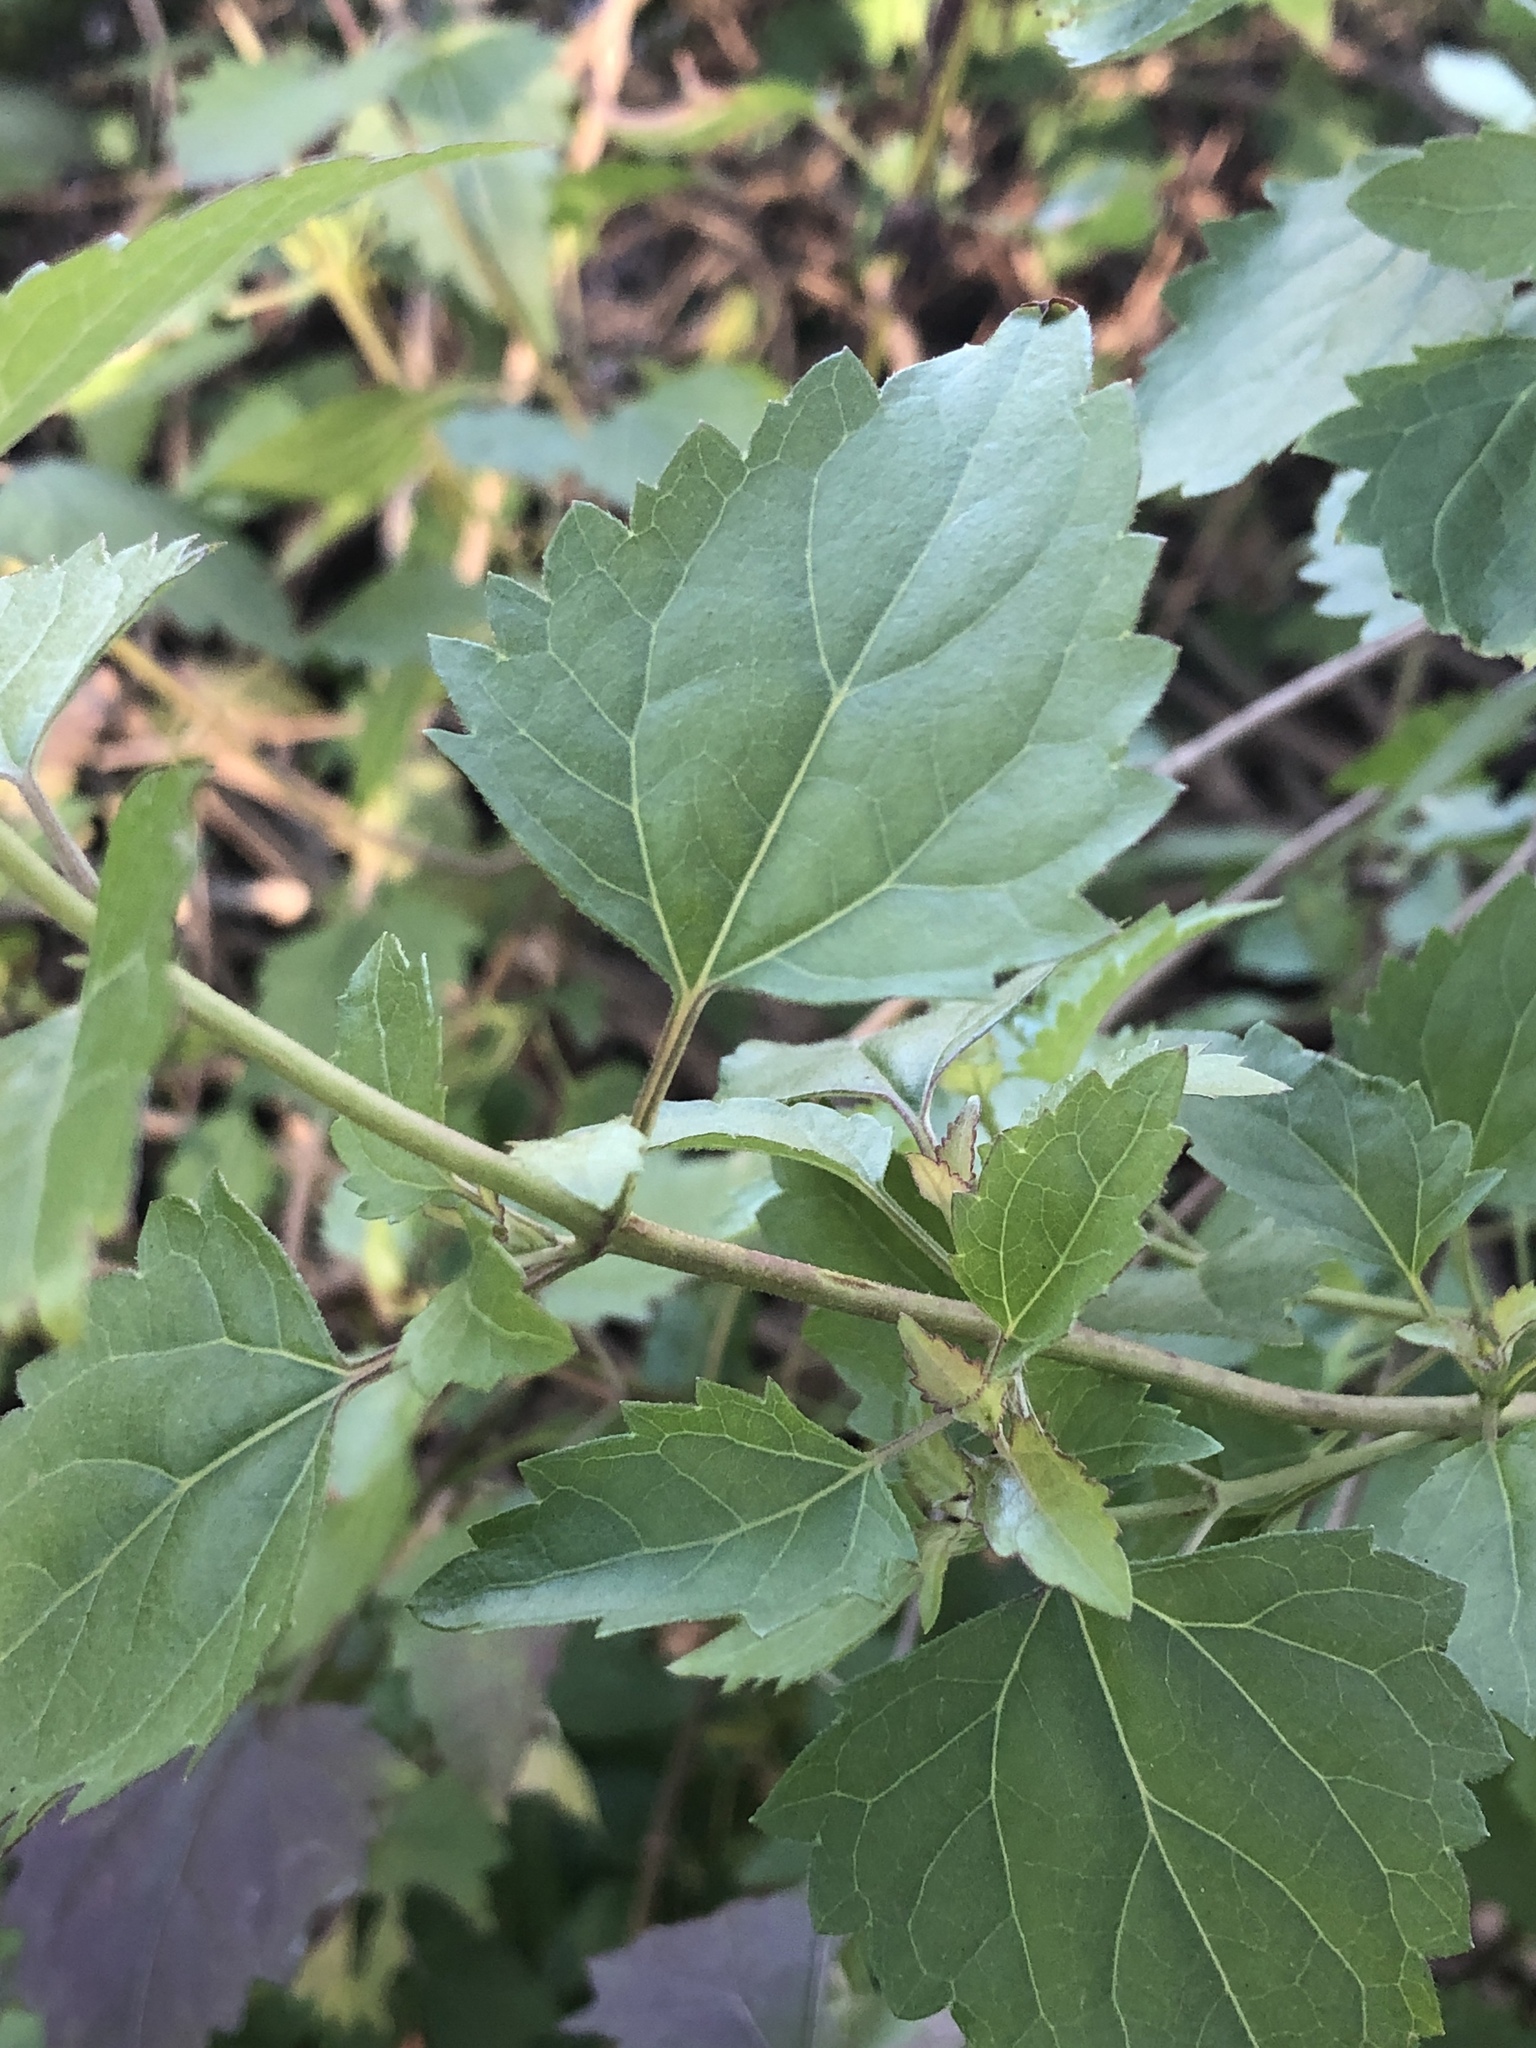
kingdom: Plantae
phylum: Tracheophyta
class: Magnoliopsida
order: Asterales
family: Asteraceae
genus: Ageratina
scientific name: Ageratina havanensis
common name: Havana snakeroot
